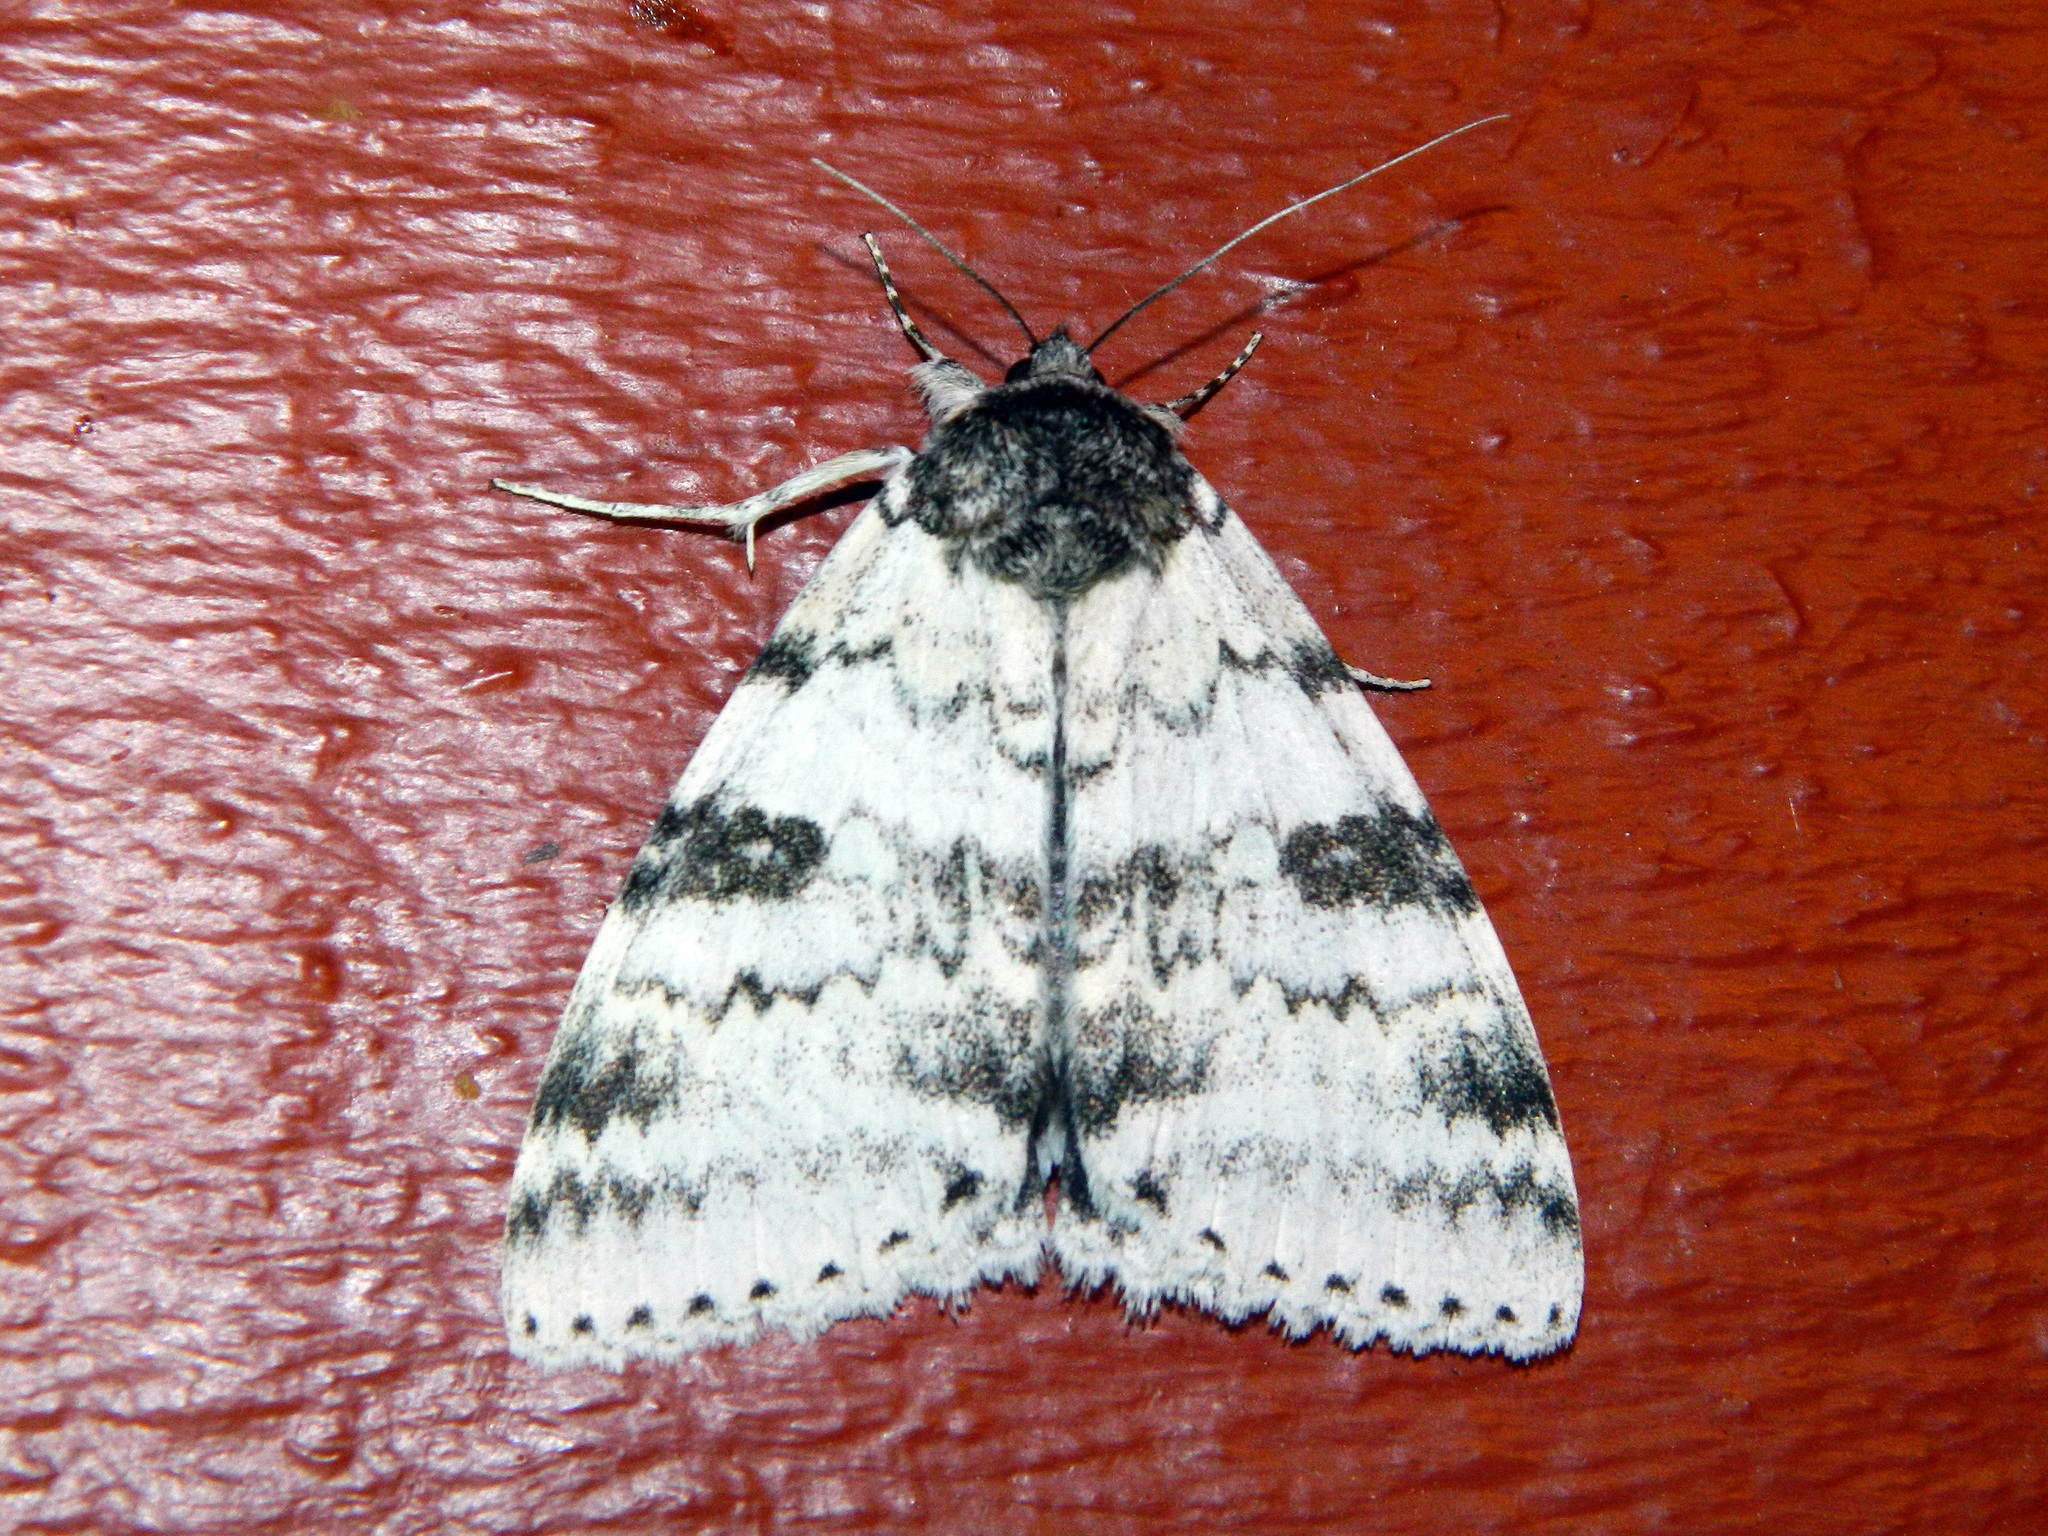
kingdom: Animalia
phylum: Arthropoda
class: Insecta
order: Lepidoptera
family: Erebidae
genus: Catocala
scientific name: Catocala relicta
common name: White underwing
